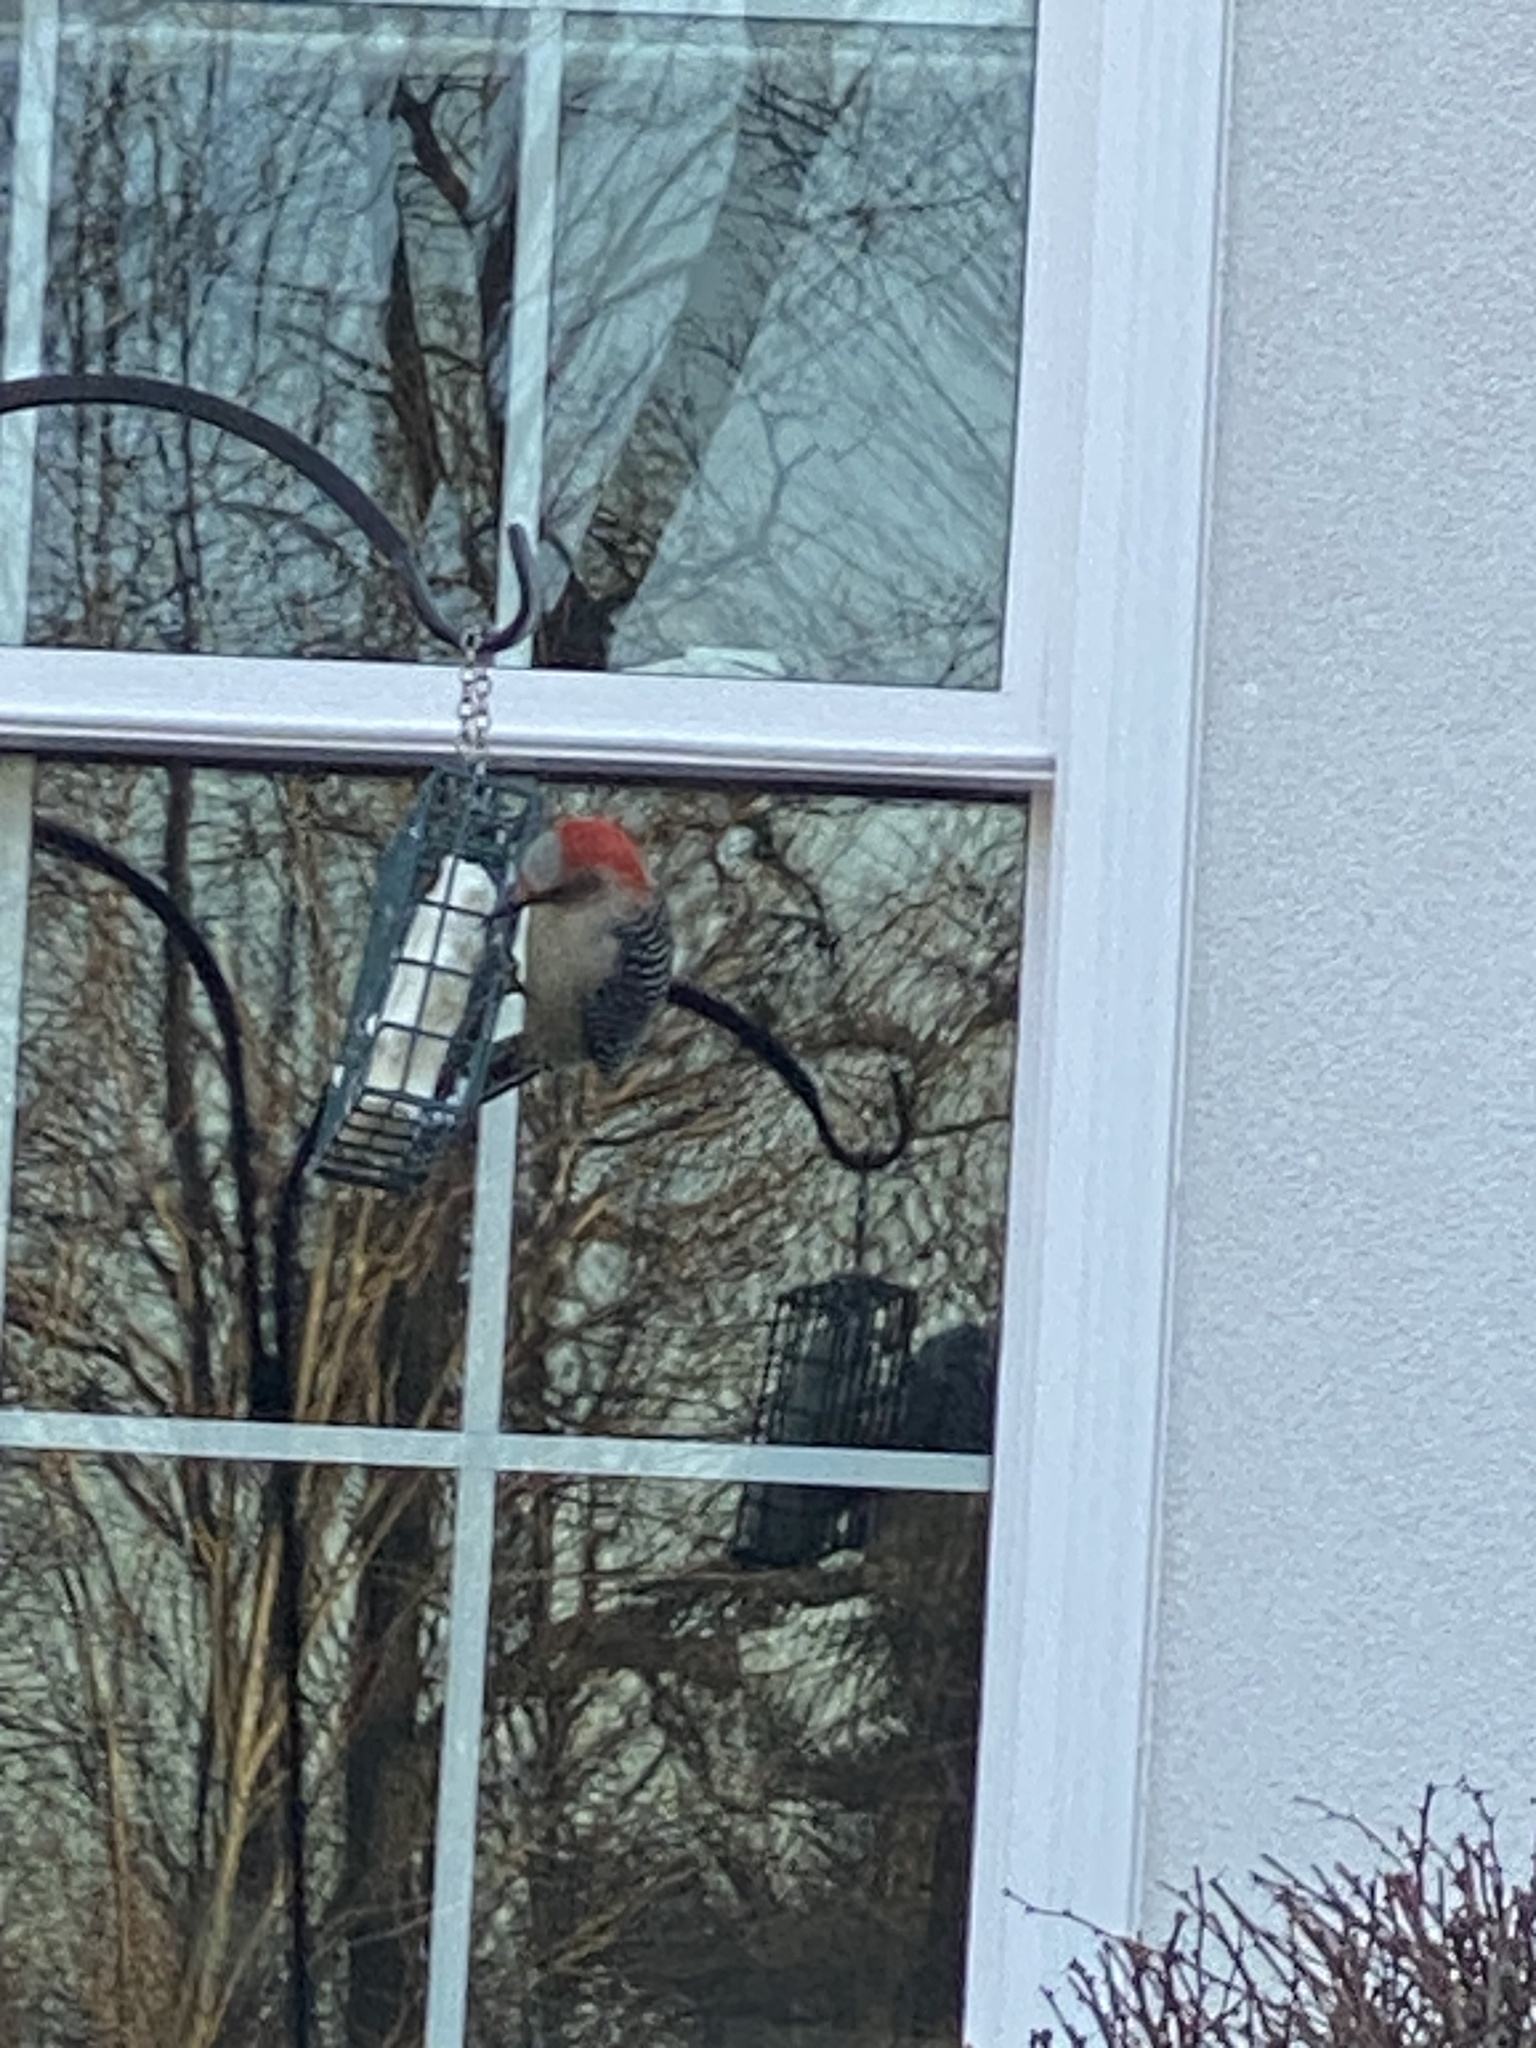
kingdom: Animalia
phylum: Chordata
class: Aves
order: Piciformes
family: Picidae
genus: Melanerpes
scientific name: Melanerpes carolinus
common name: Red-bellied woodpecker
